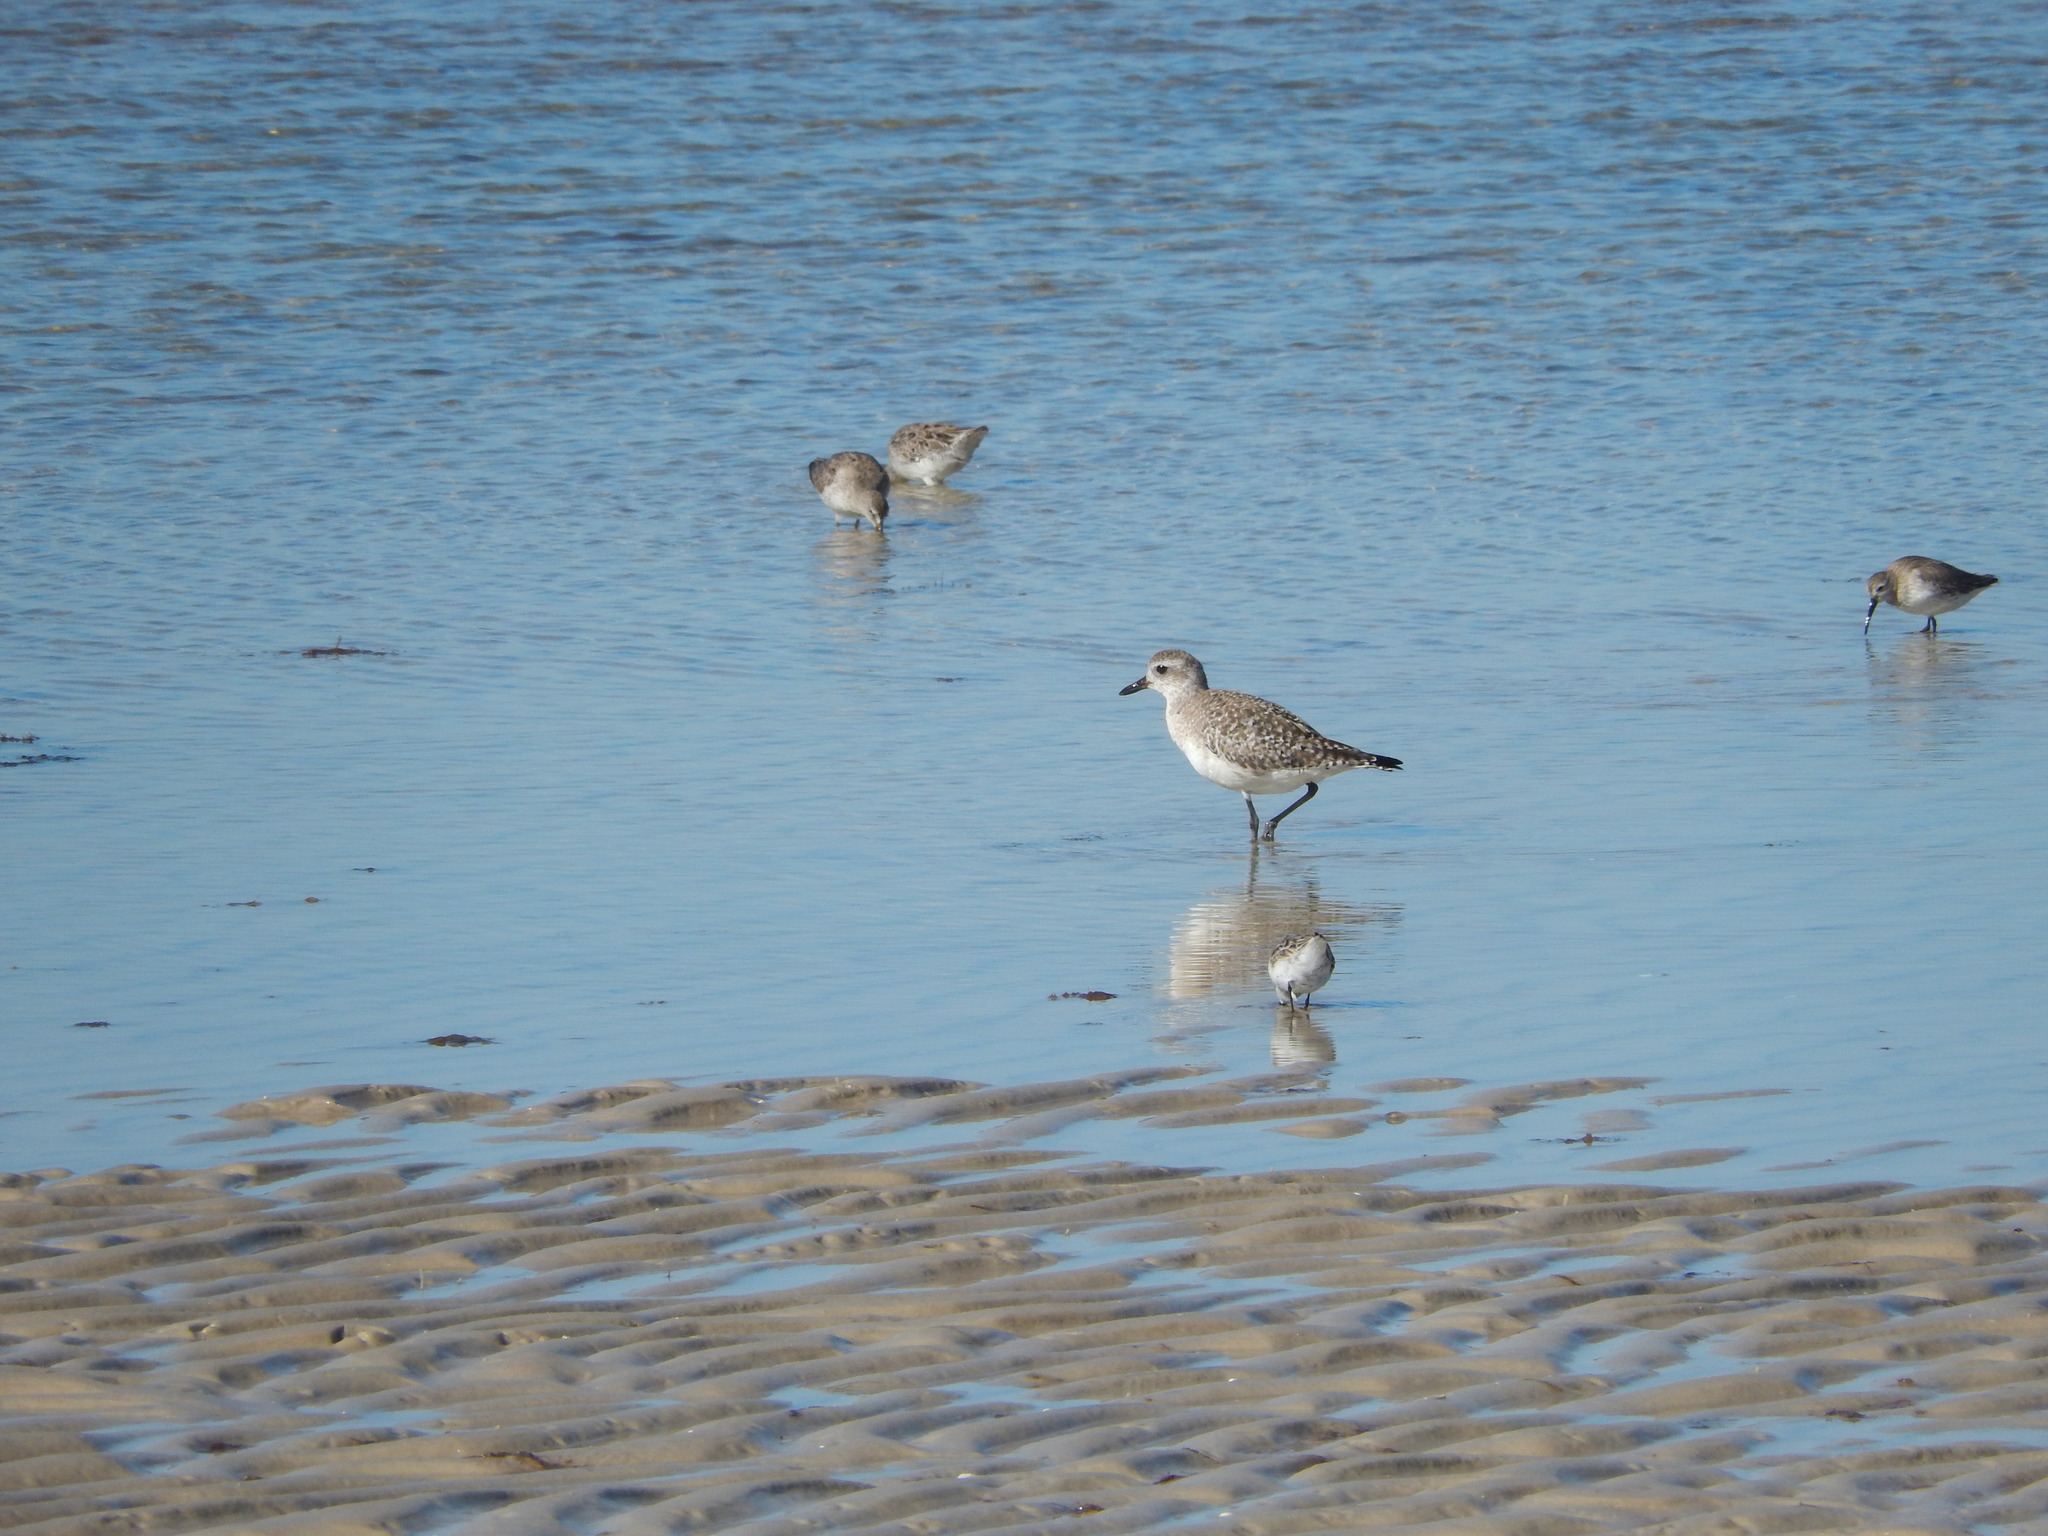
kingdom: Animalia
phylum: Chordata
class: Aves
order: Charadriiformes
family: Charadriidae
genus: Pluvialis
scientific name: Pluvialis squatarola
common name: Grey plover
